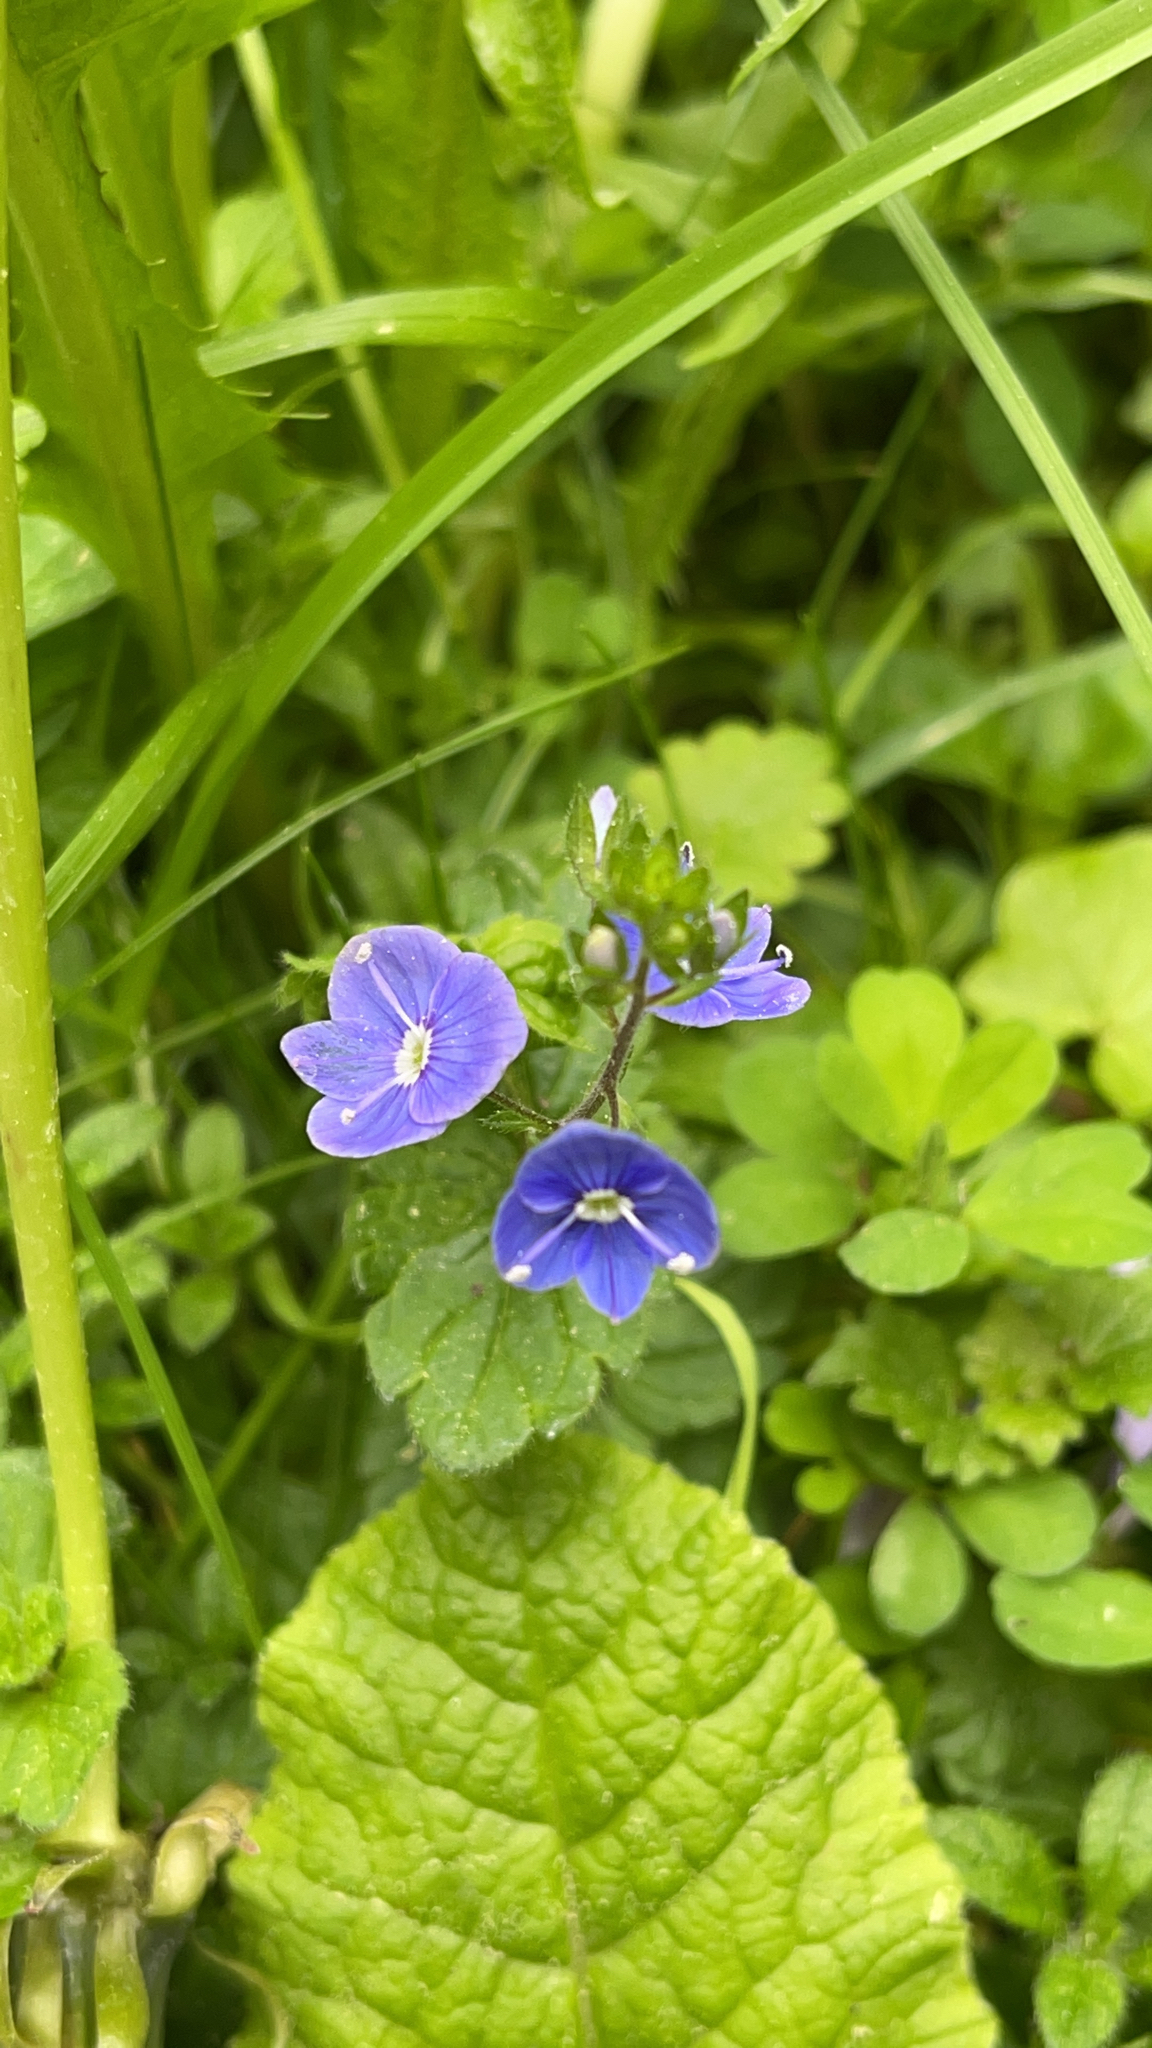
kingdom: Plantae
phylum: Tracheophyta
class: Magnoliopsida
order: Lamiales
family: Plantaginaceae
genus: Veronica
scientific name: Veronica chamaedrys
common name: Germander speedwell
